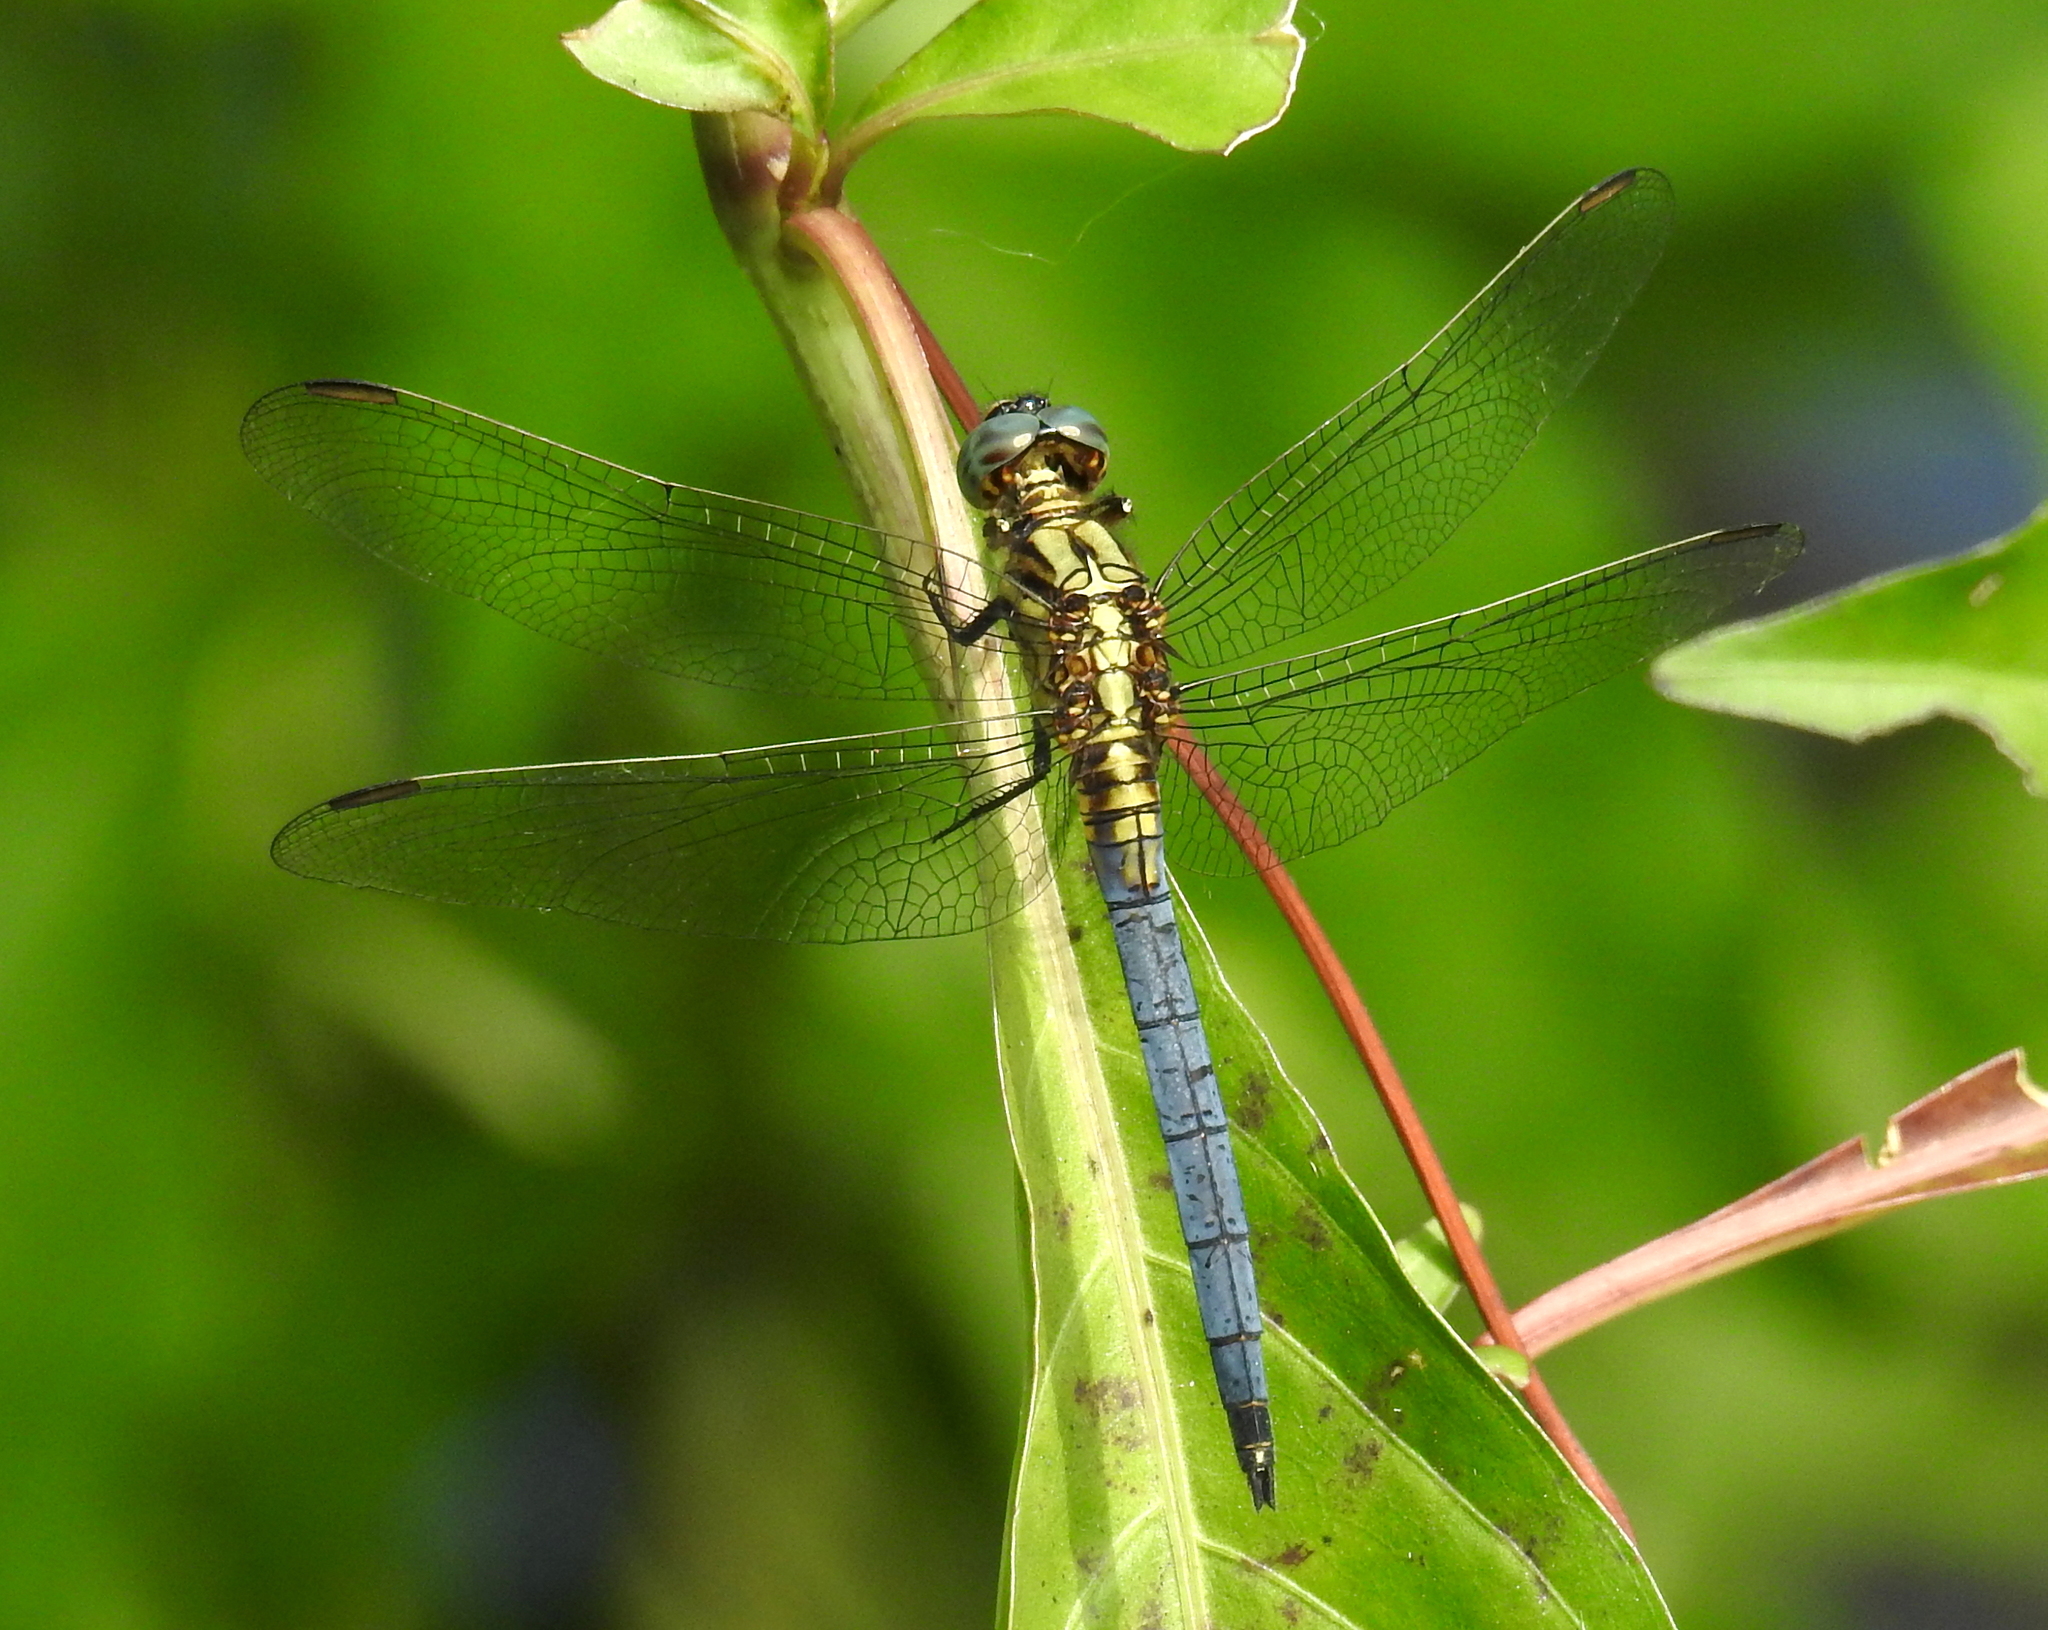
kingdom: Animalia
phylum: Arthropoda
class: Insecta
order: Odonata
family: Libellulidae
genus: Orthetrum
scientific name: Orthetrum luzonicum
